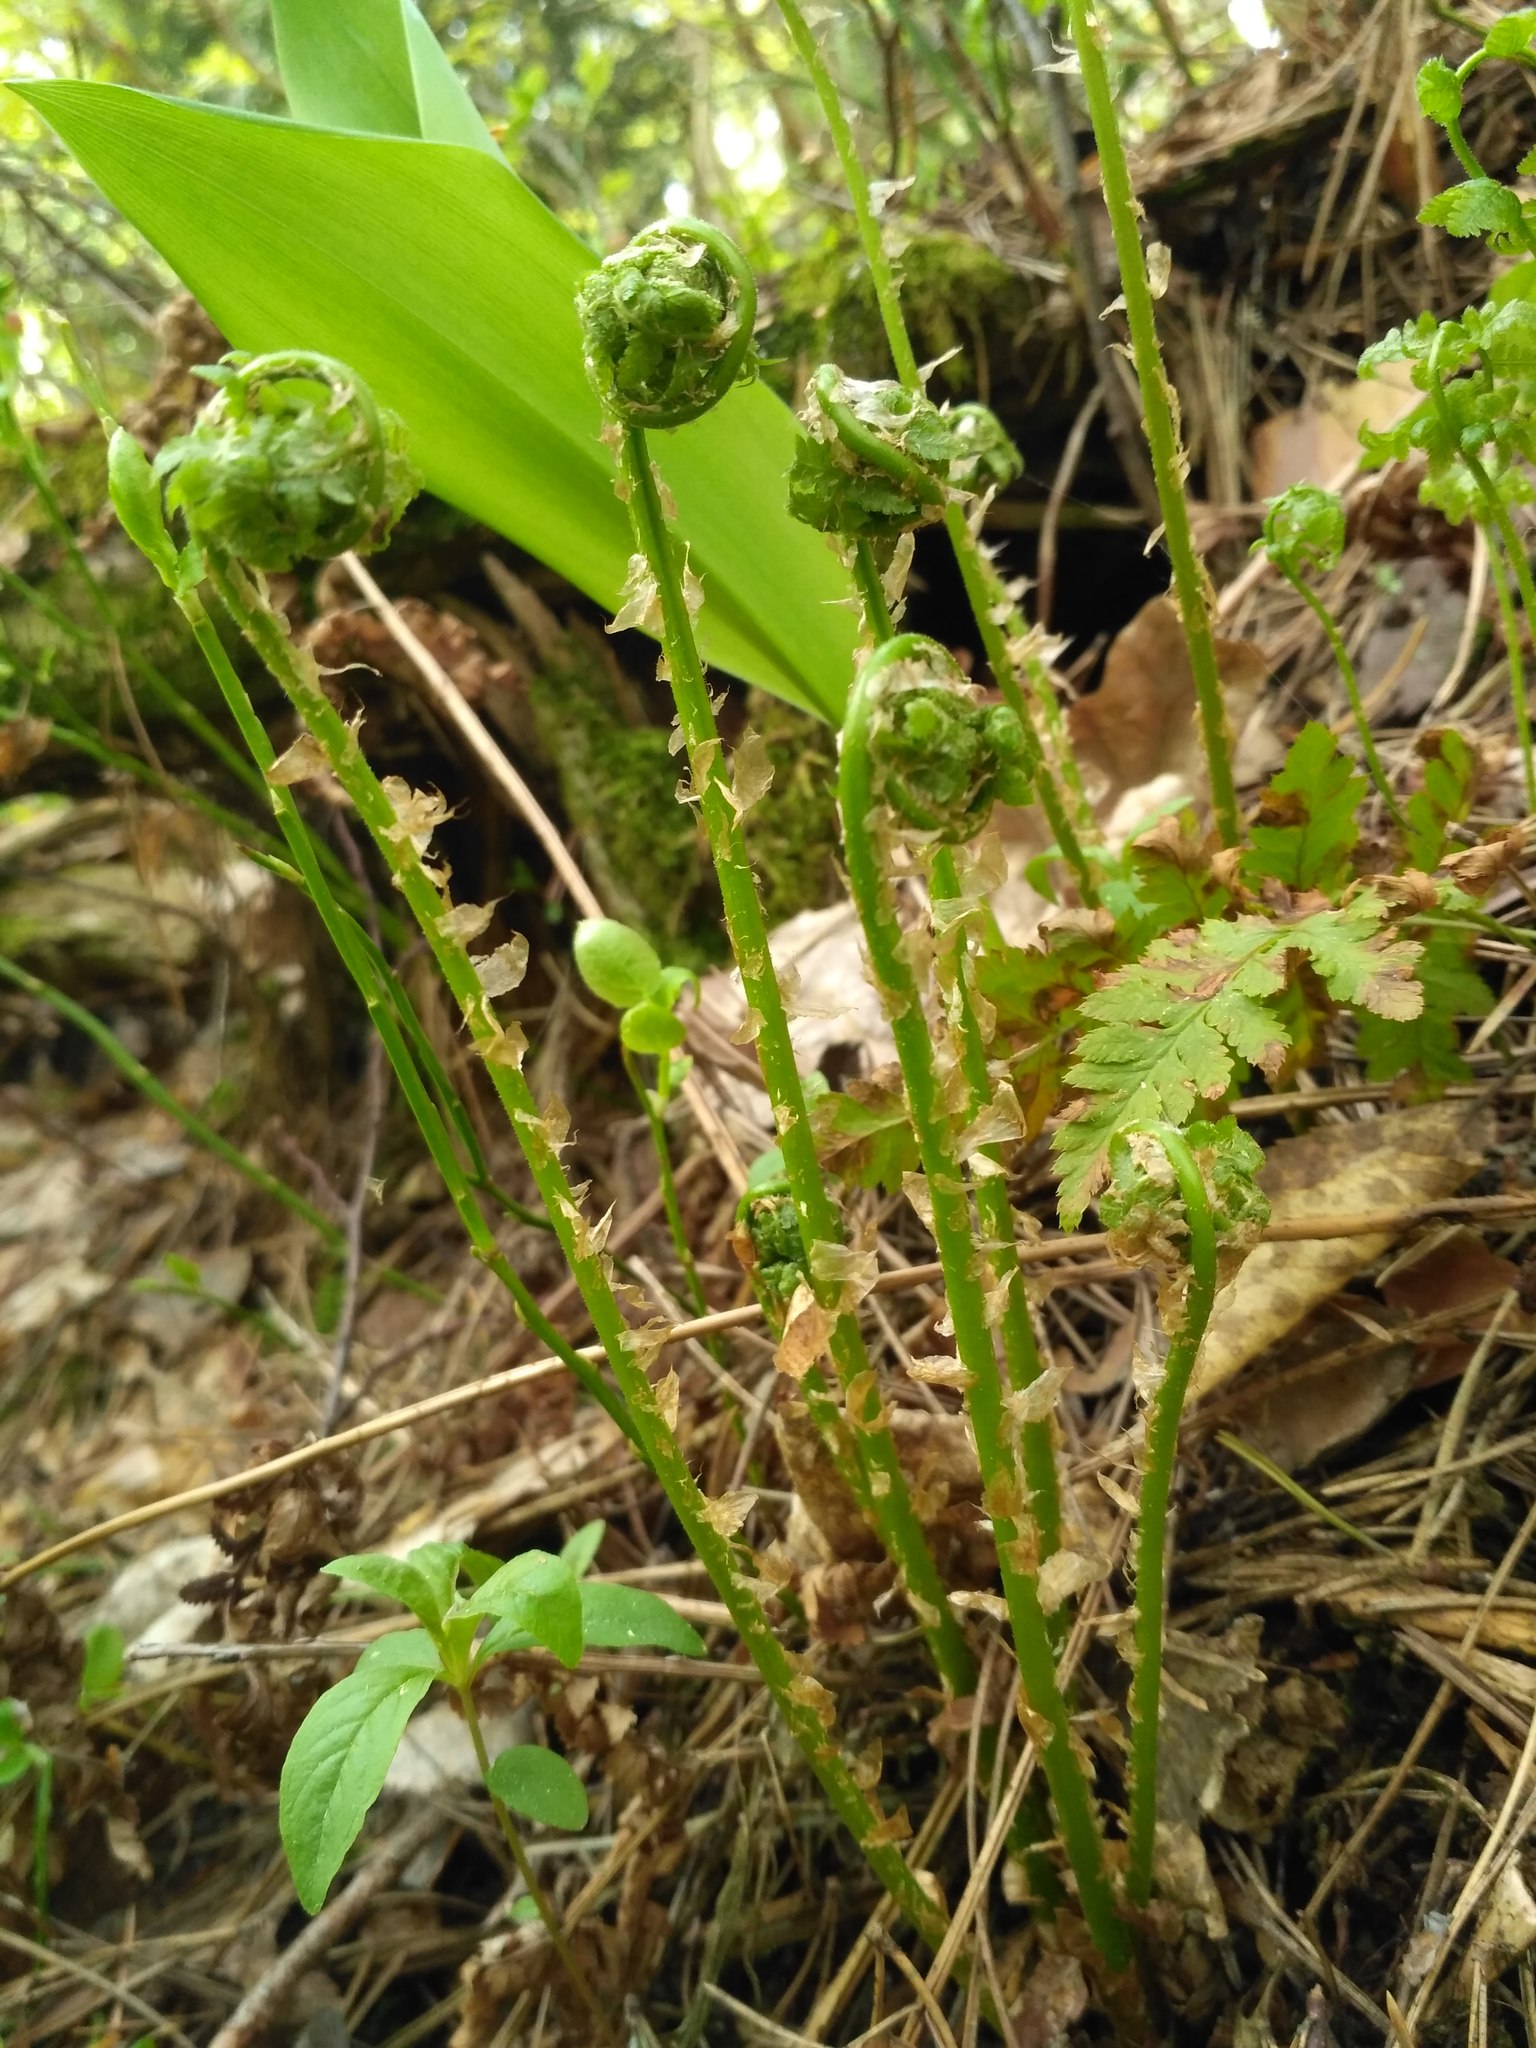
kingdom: Plantae
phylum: Tracheophyta
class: Polypodiopsida
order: Polypodiales
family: Dryopteridaceae
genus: Dryopteris
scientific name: Dryopteris carthusiana
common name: Narrow buckler-fern
